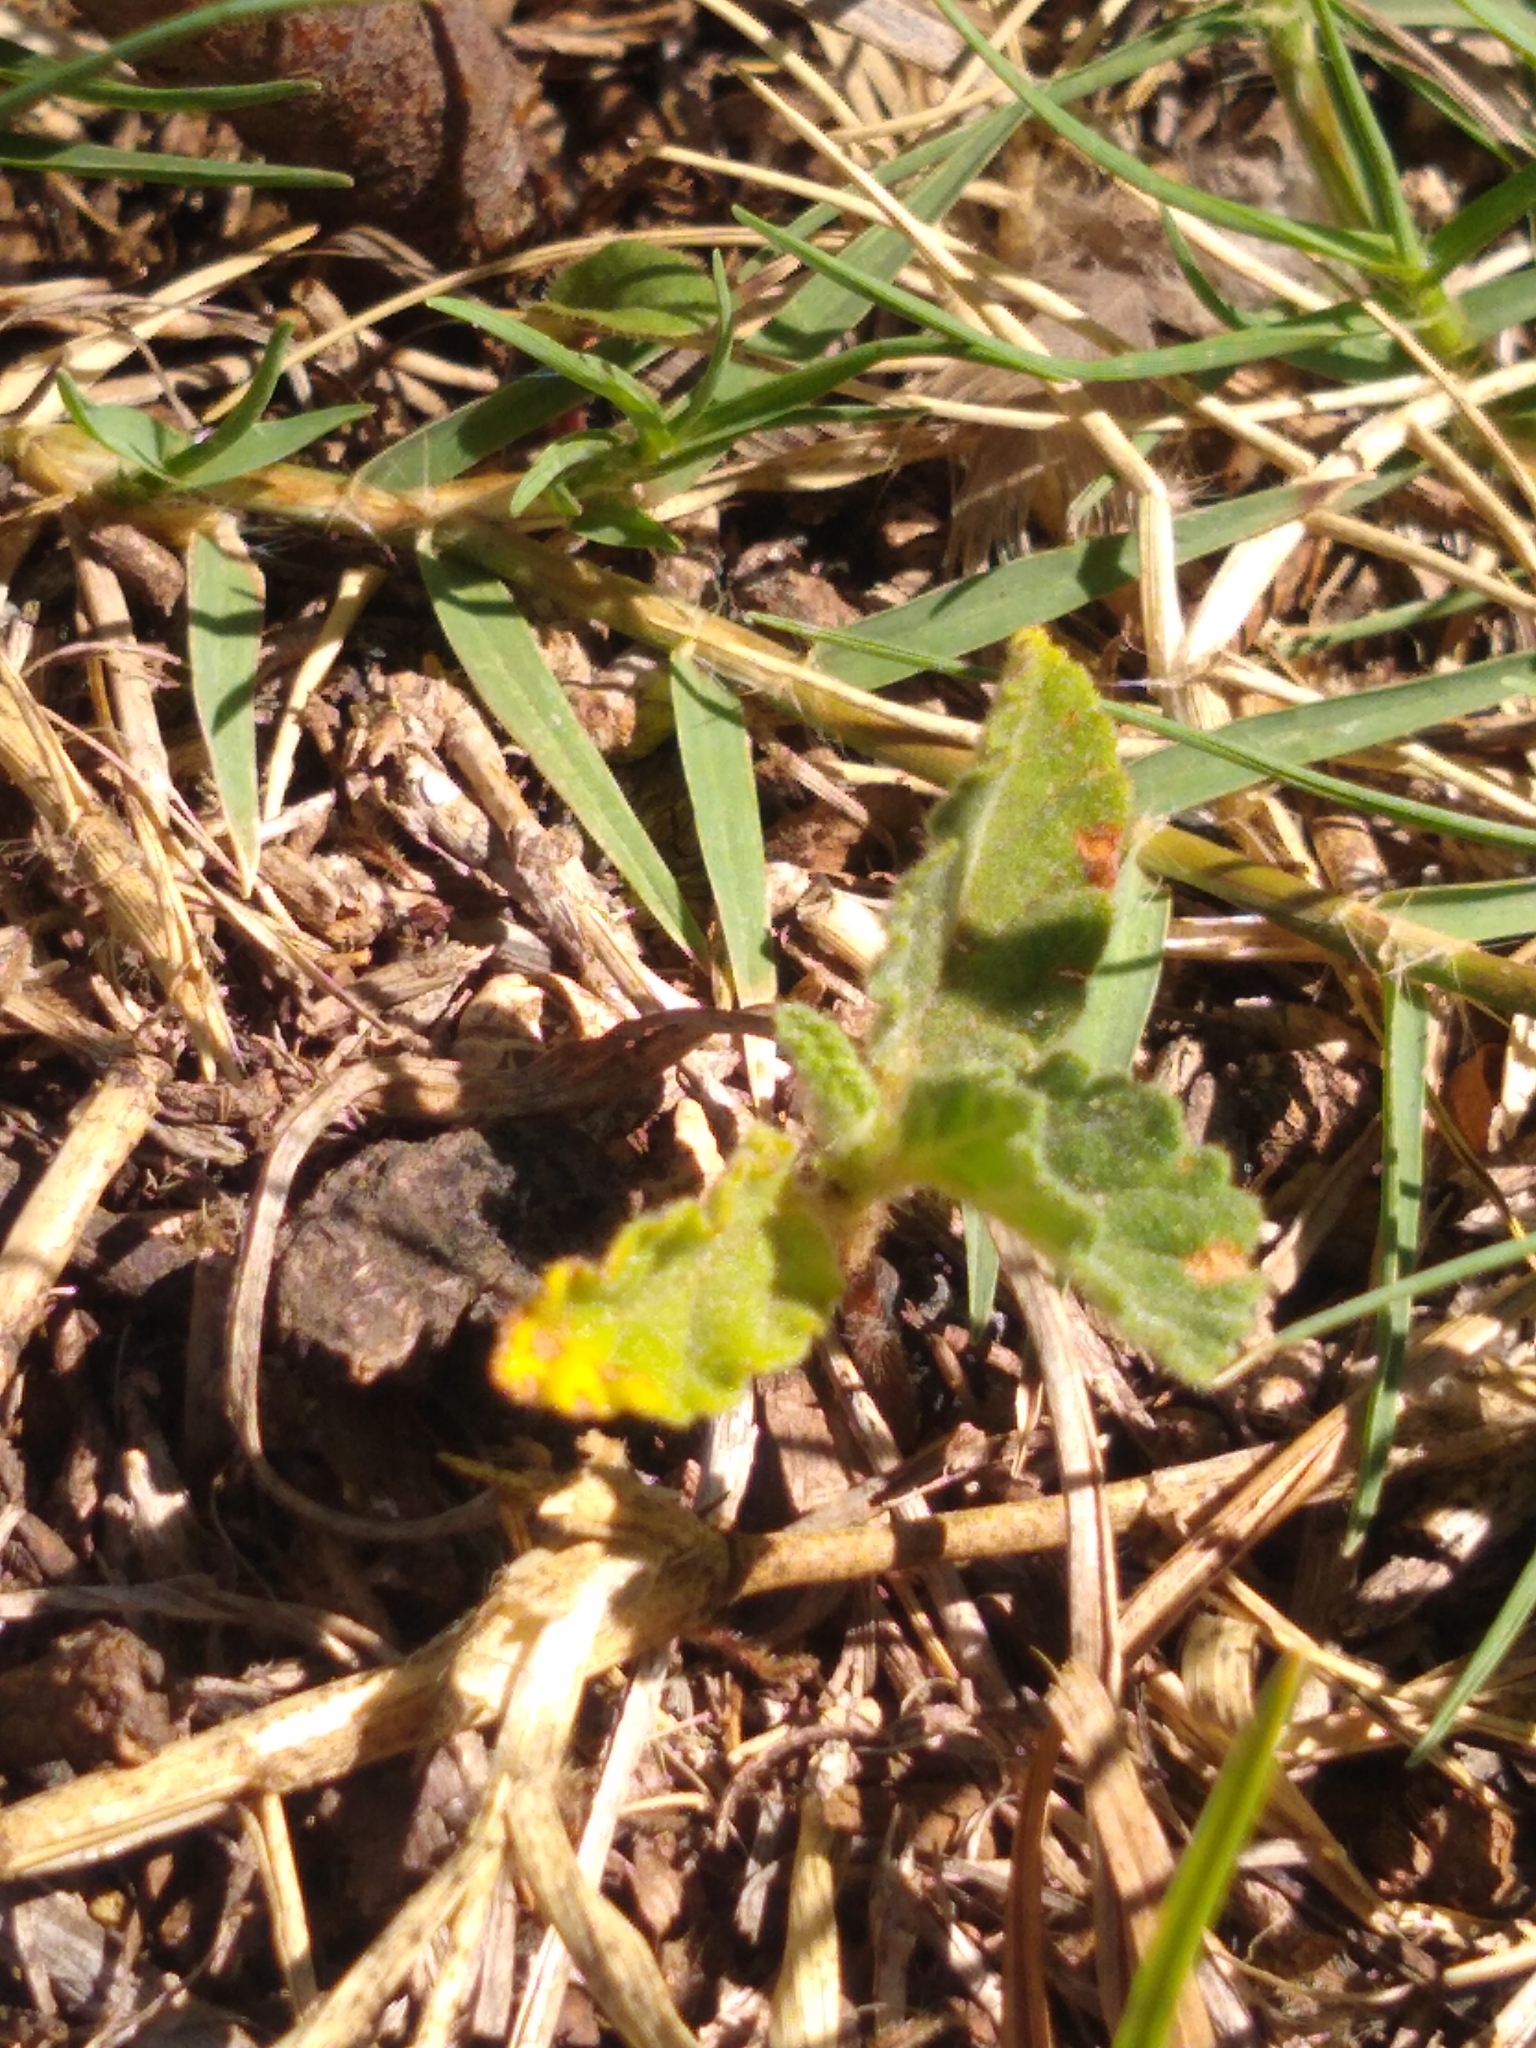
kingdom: Plantae
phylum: Tracheophyta
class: Magnoliopsida
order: Malvales
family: Malvaceae
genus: Waltheria
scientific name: Waltheria indica
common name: Leather-coat
